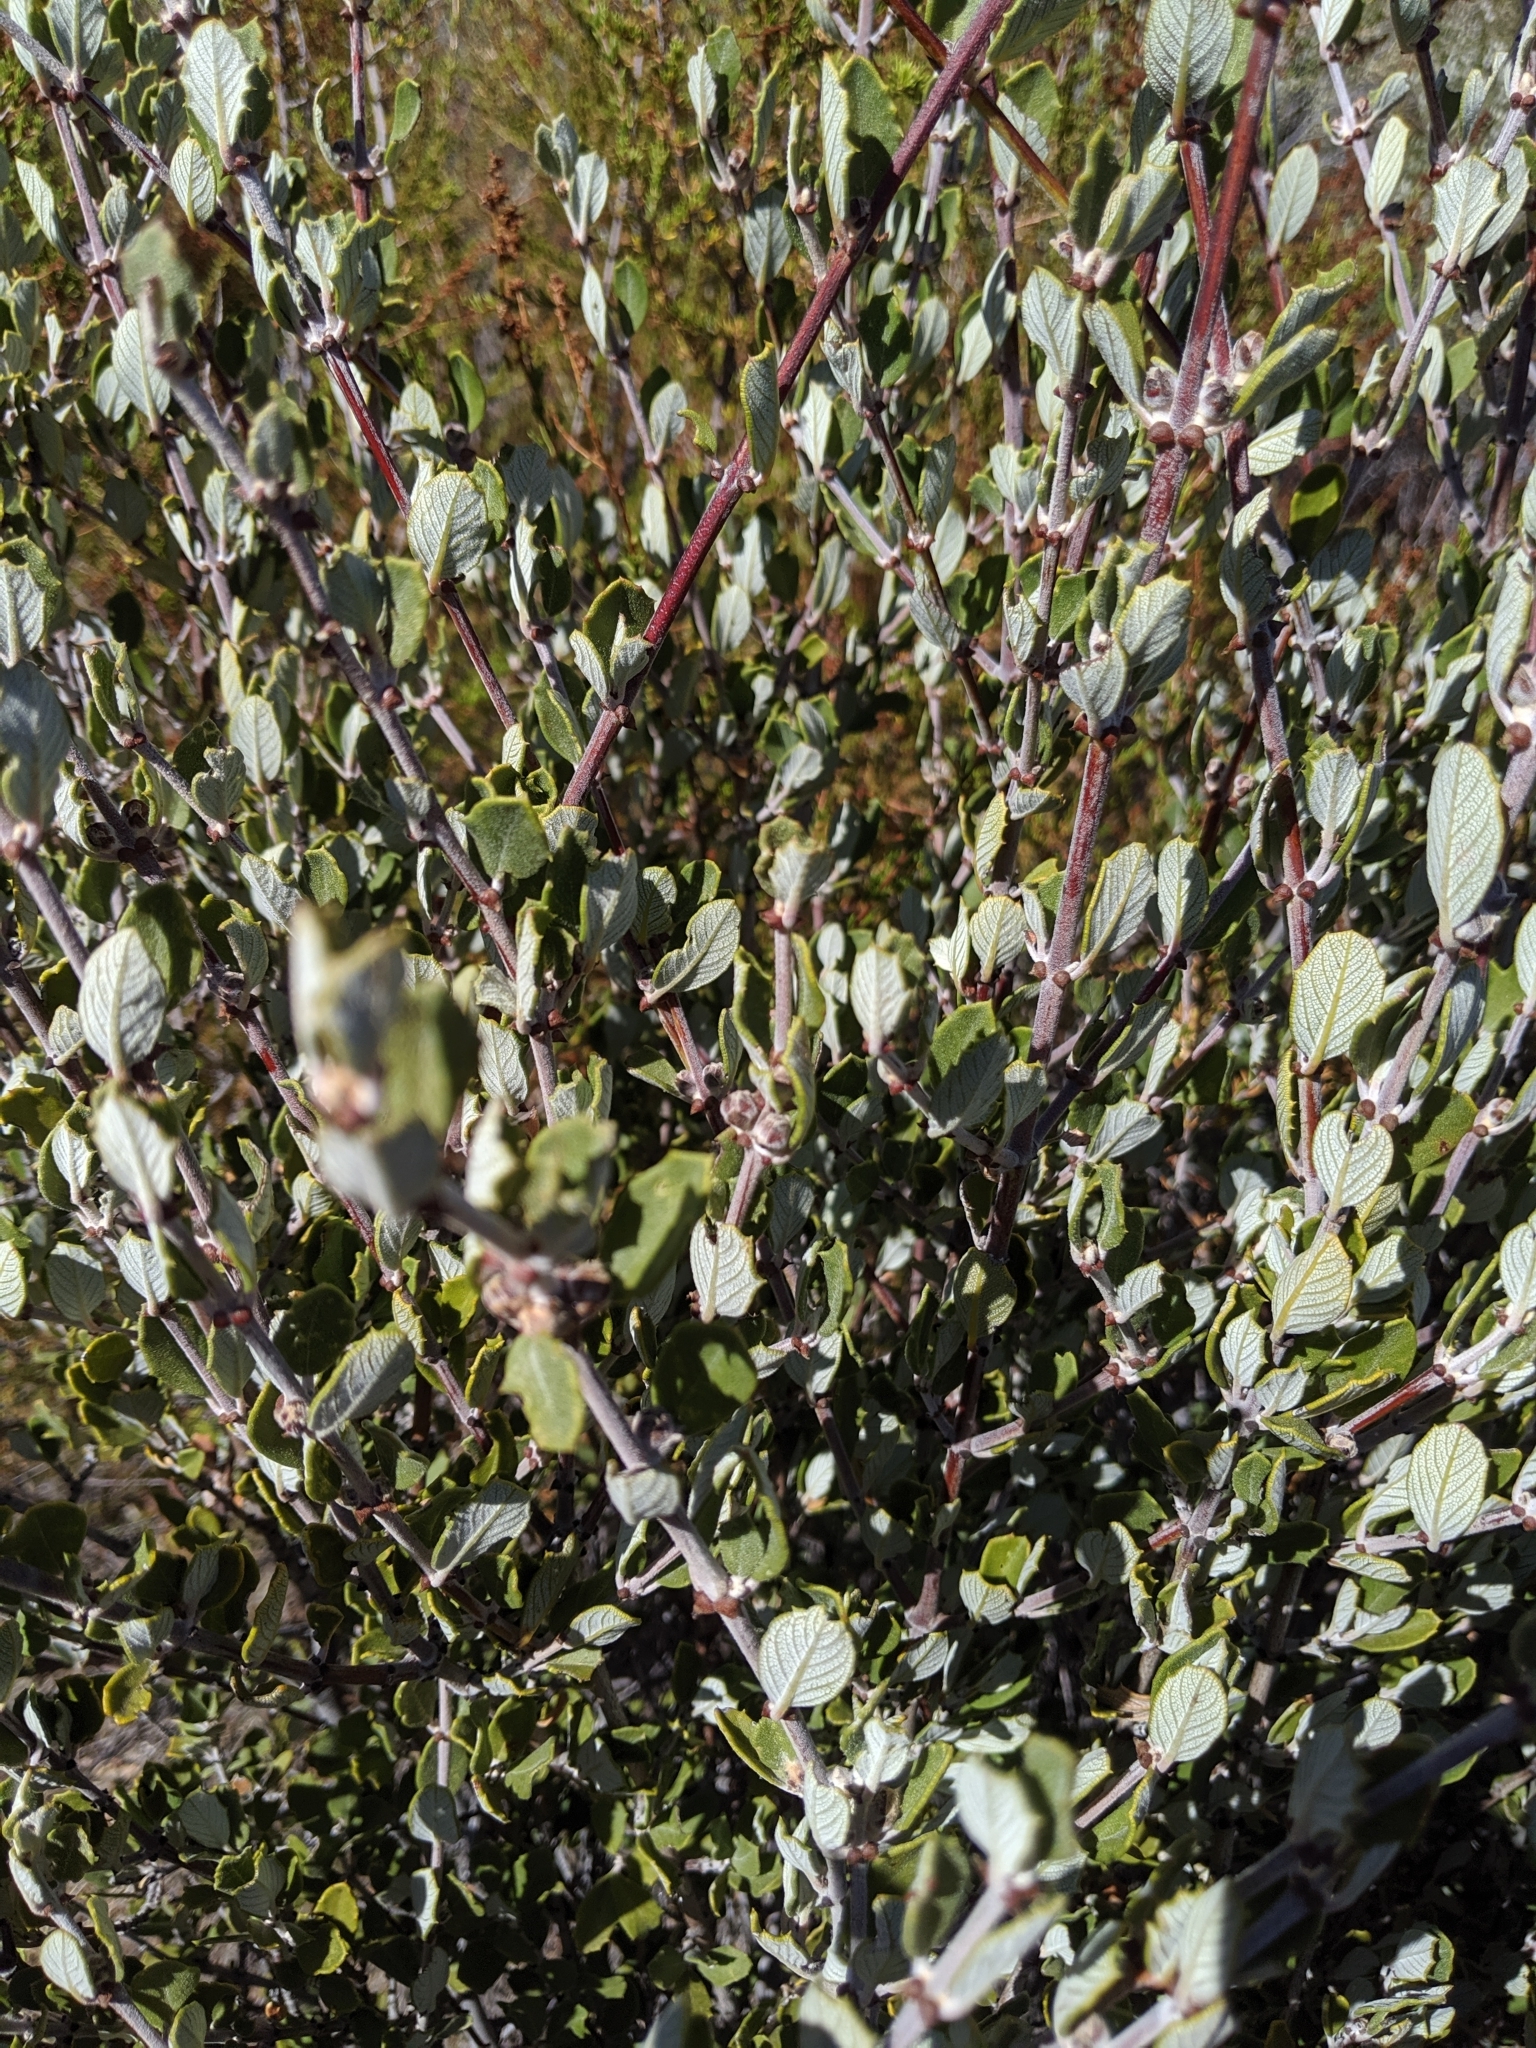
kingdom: Plantae
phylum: Tracheophyta
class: Magnoliopsida
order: Rosales
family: Rhamnaceae
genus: Ceanothus
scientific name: Ceanothus crassifolius
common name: Hoaryleaf ceanothus
